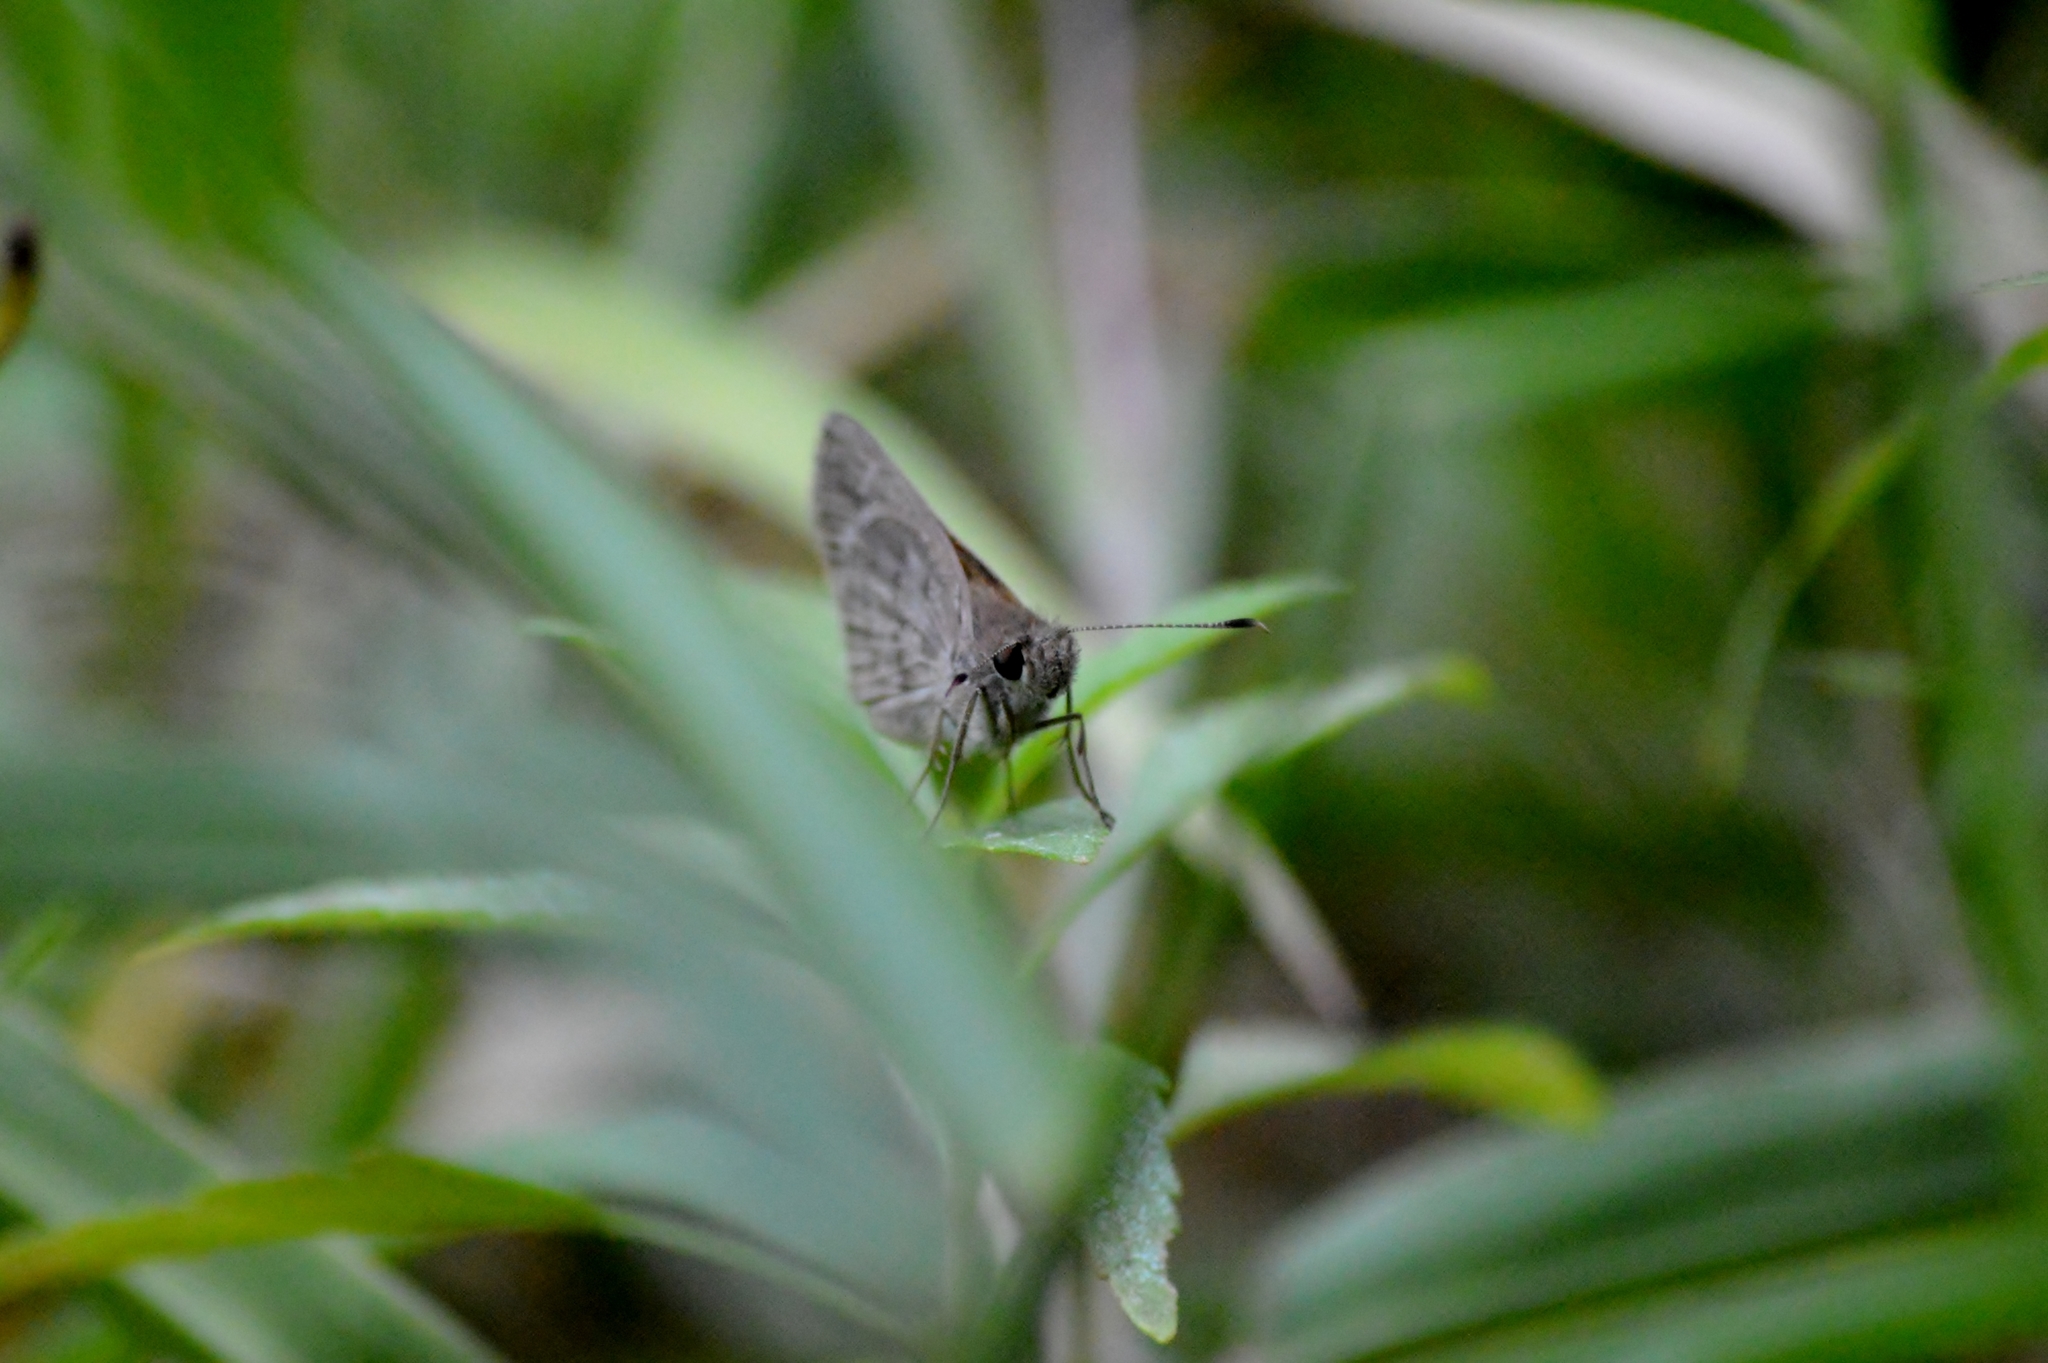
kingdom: Animalia
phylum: Arthropoda
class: Insecta
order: Lepidoptera
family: Hesperiidae
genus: Cymaenes
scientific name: Cymaenes gisca
